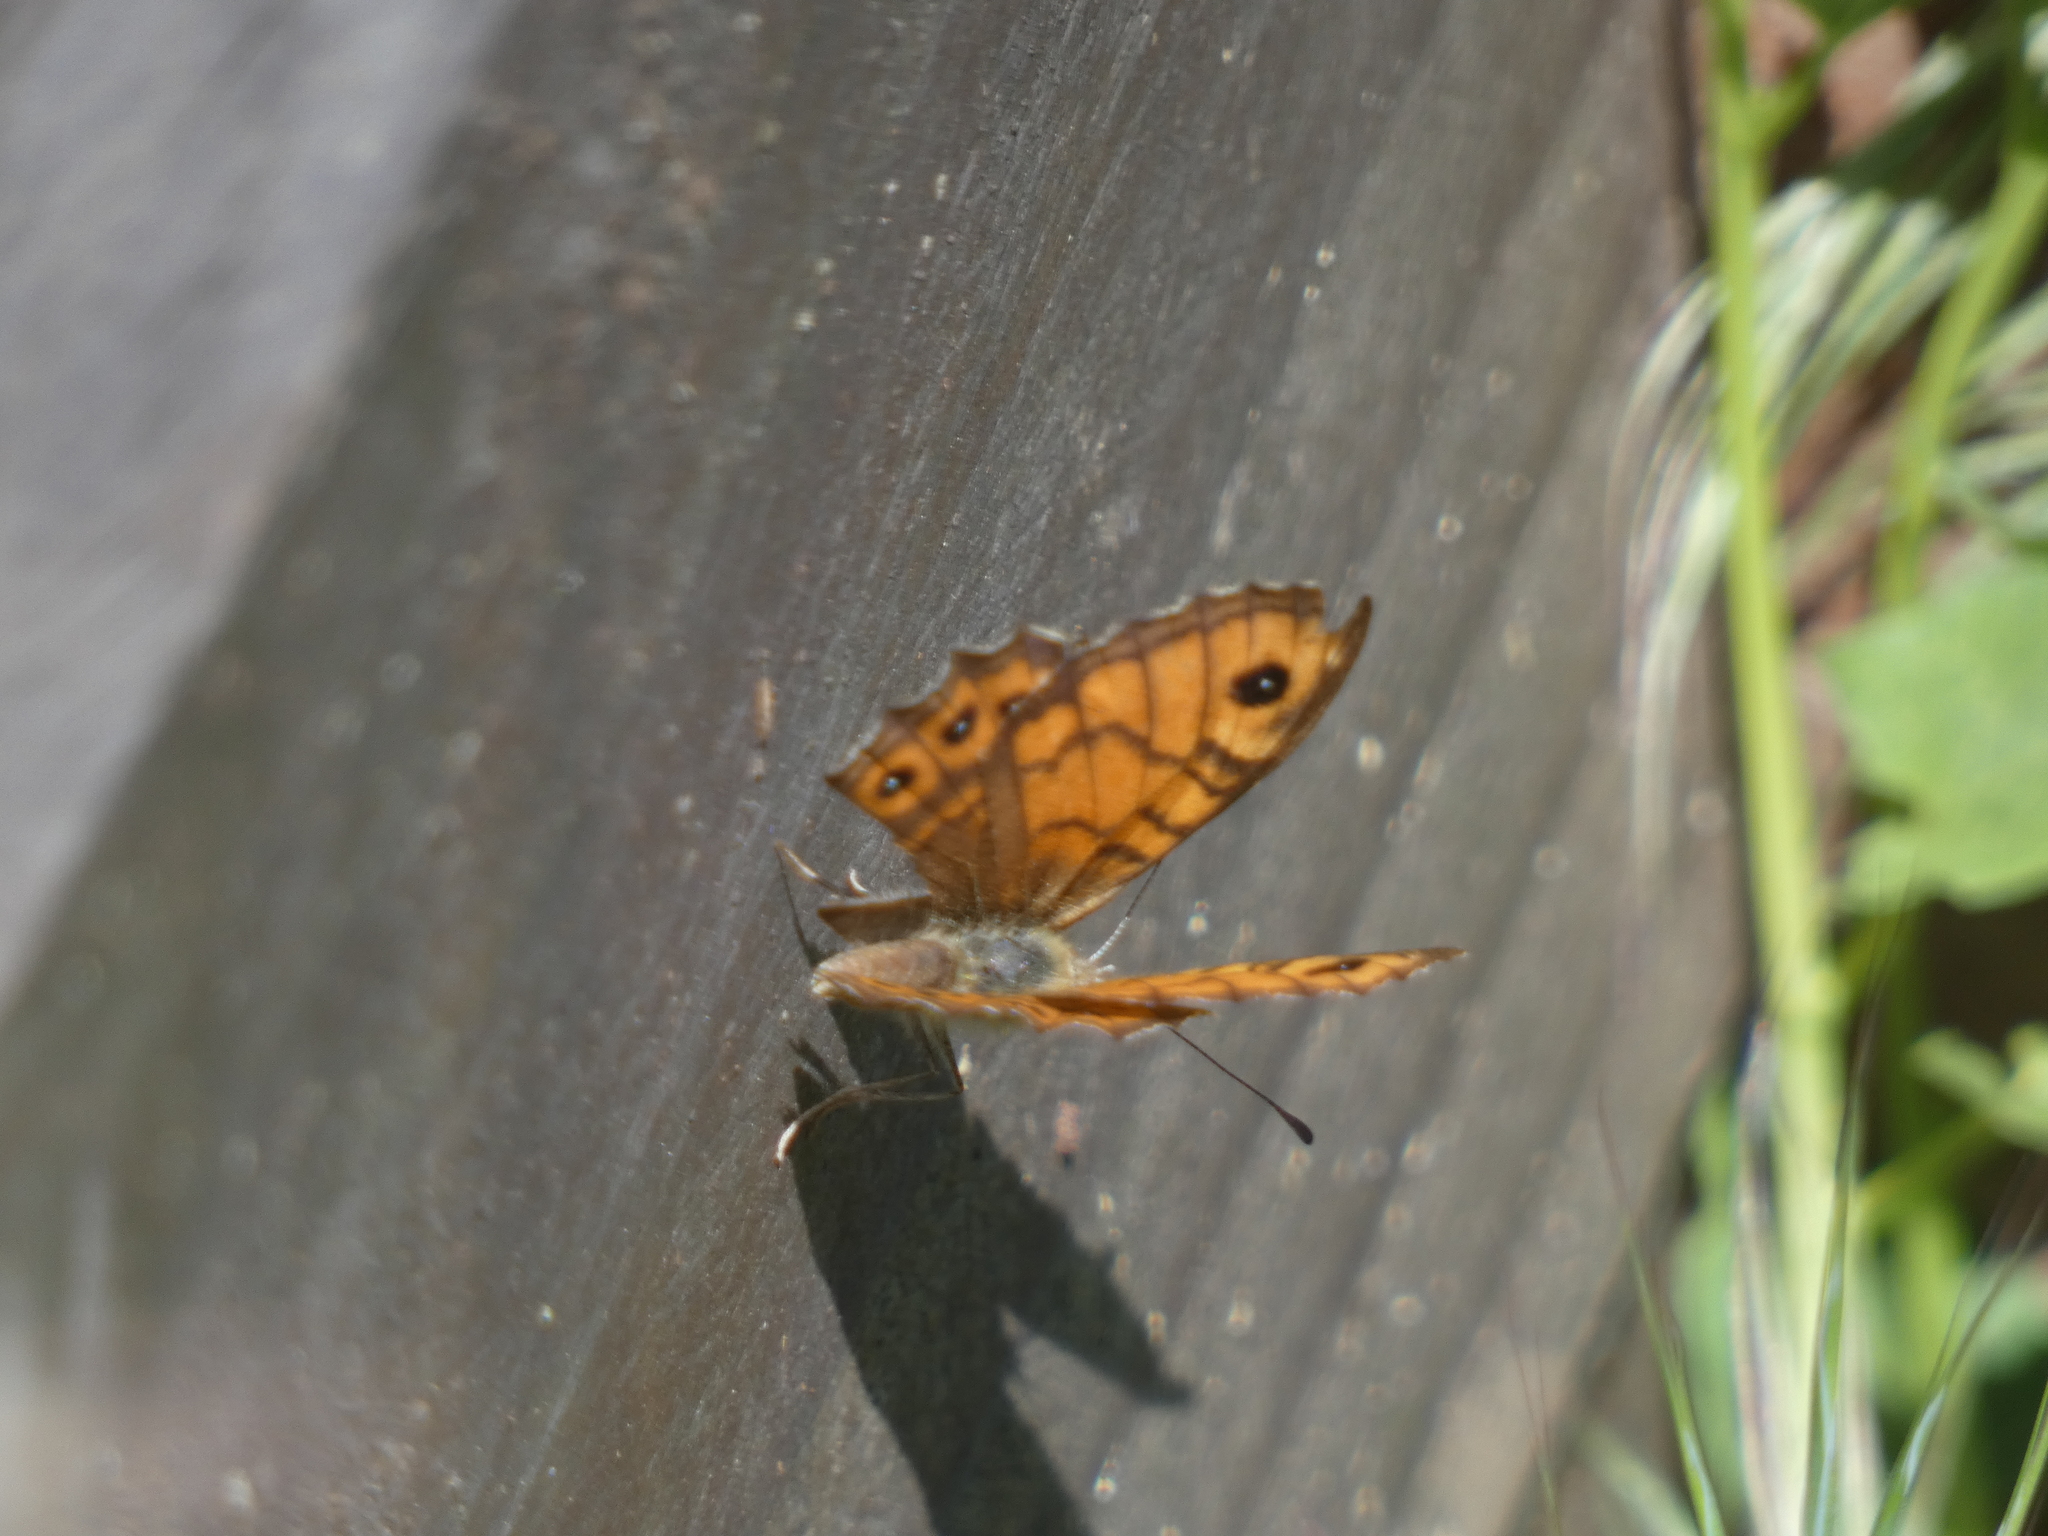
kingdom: Animalia
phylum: Arthropoda
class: Insecta
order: Lepidoptera
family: Nymphalidae
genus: Pararge
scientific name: Pararge Lasiommata megera
